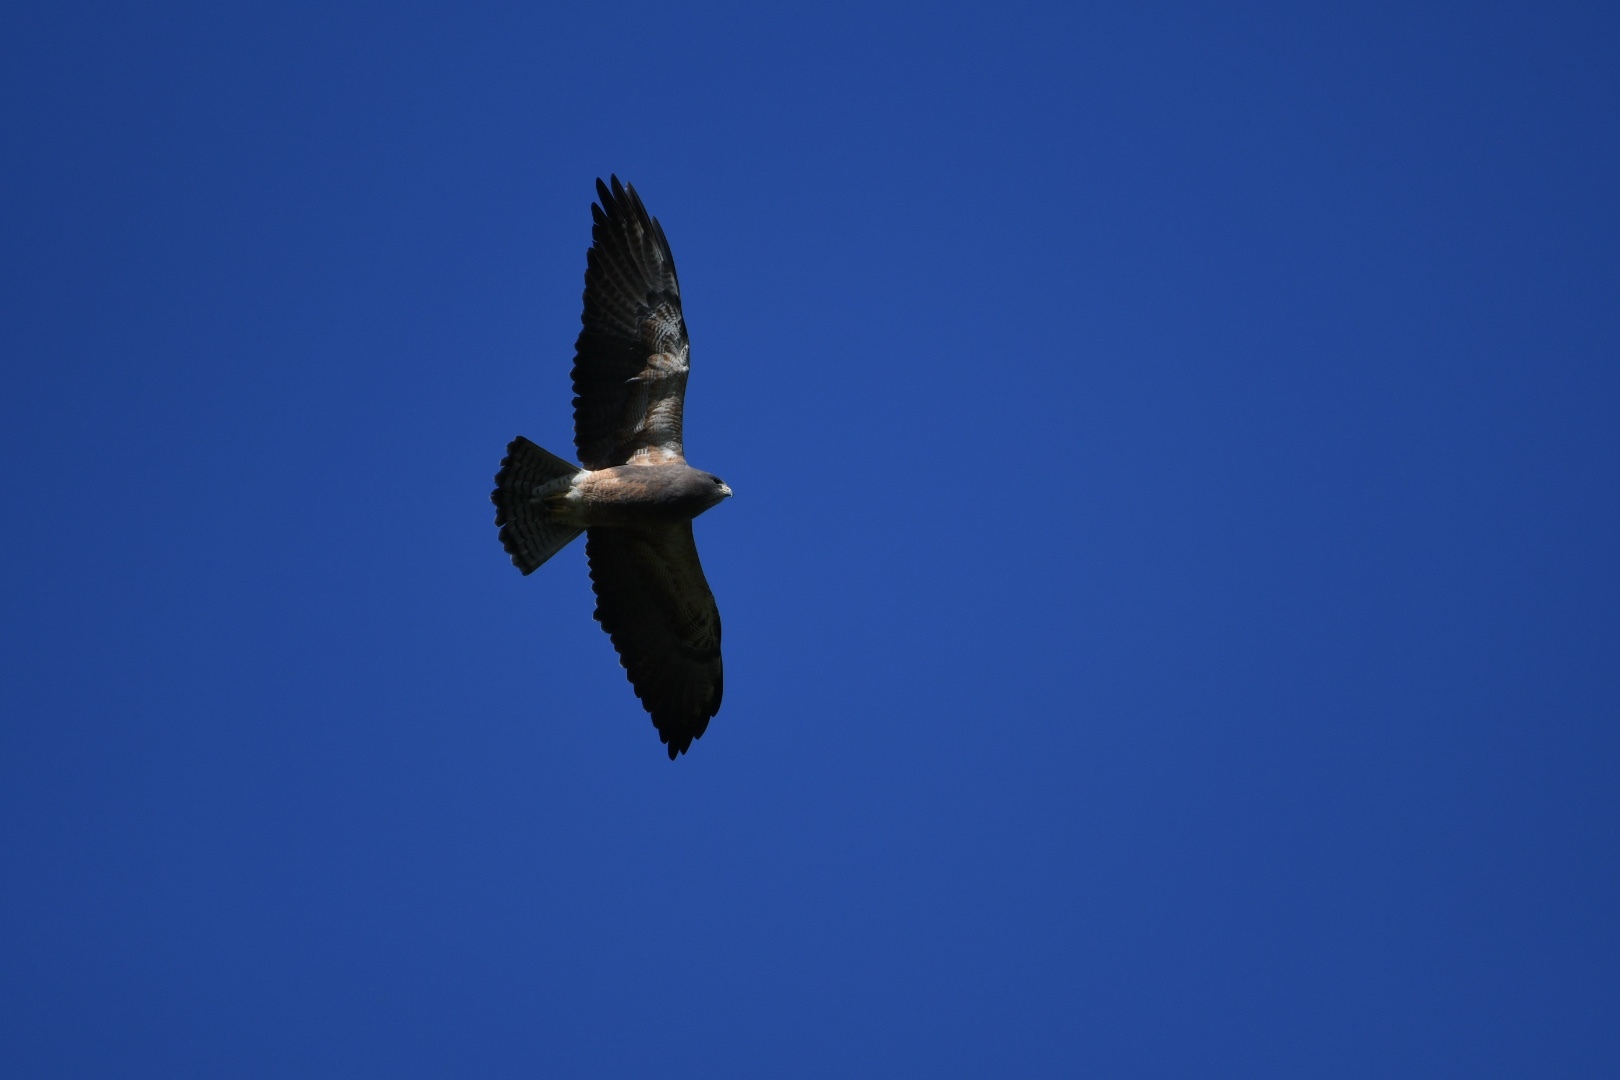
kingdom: Animalia
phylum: Chordata
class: Aves
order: Accipitriformes
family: Accipitridae
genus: Buteo
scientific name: Buteo swainsoni
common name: Swainson's hawk
